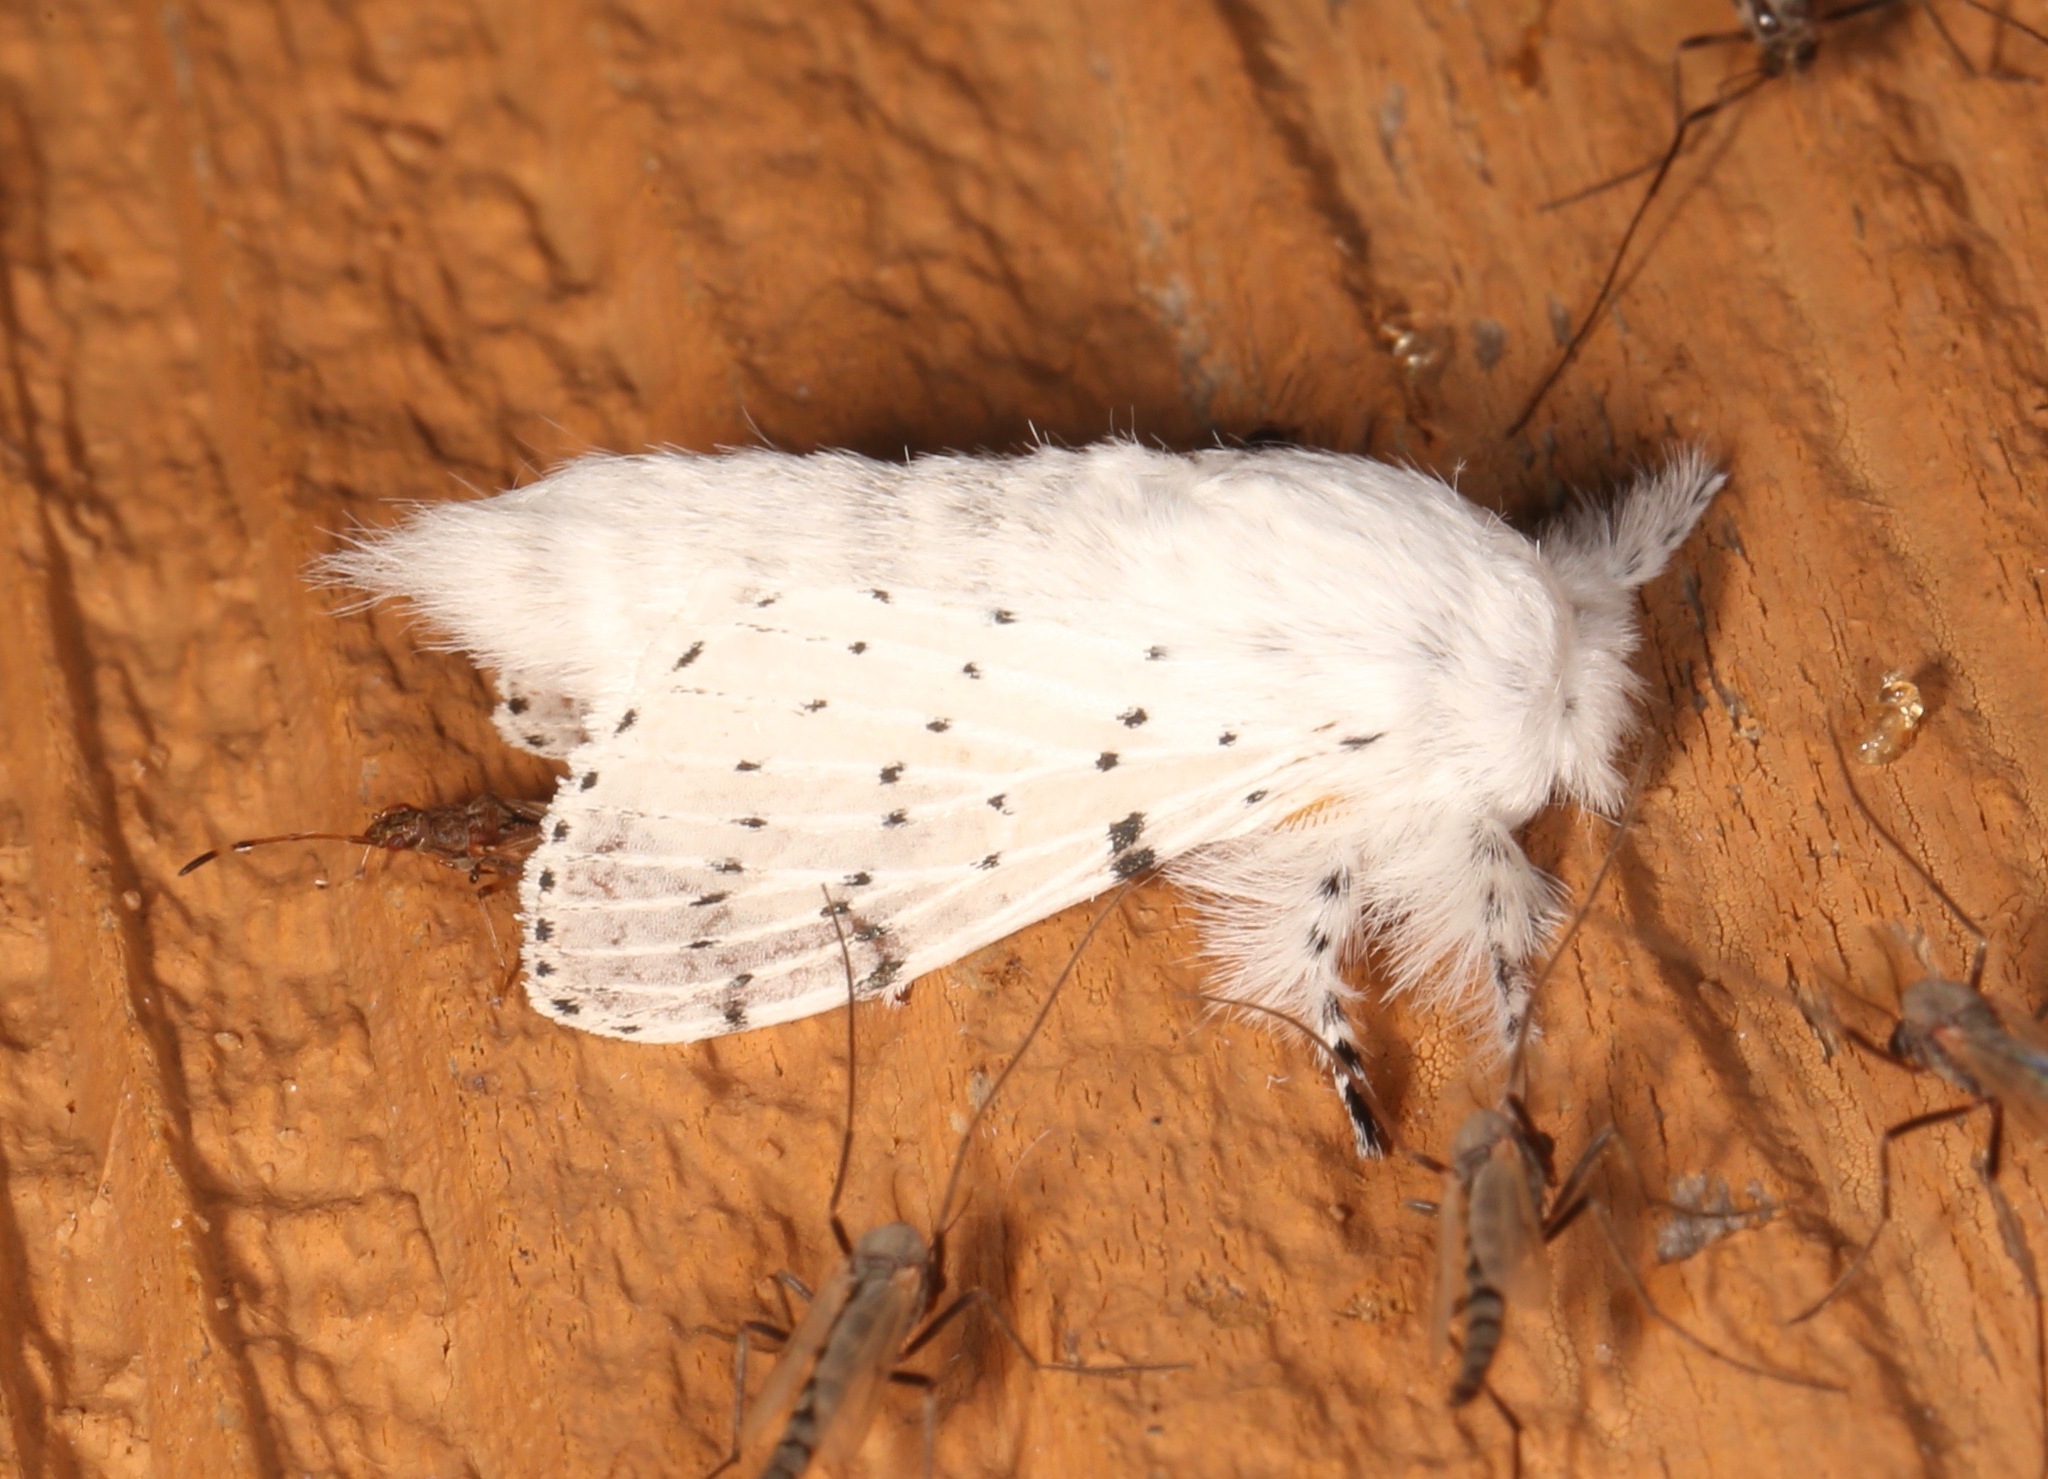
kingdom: Animalia
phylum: Arthropoda
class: Insecta
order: Lepidoptera
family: Lasiocampidae
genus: Artace
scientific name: Artace cribrarius
